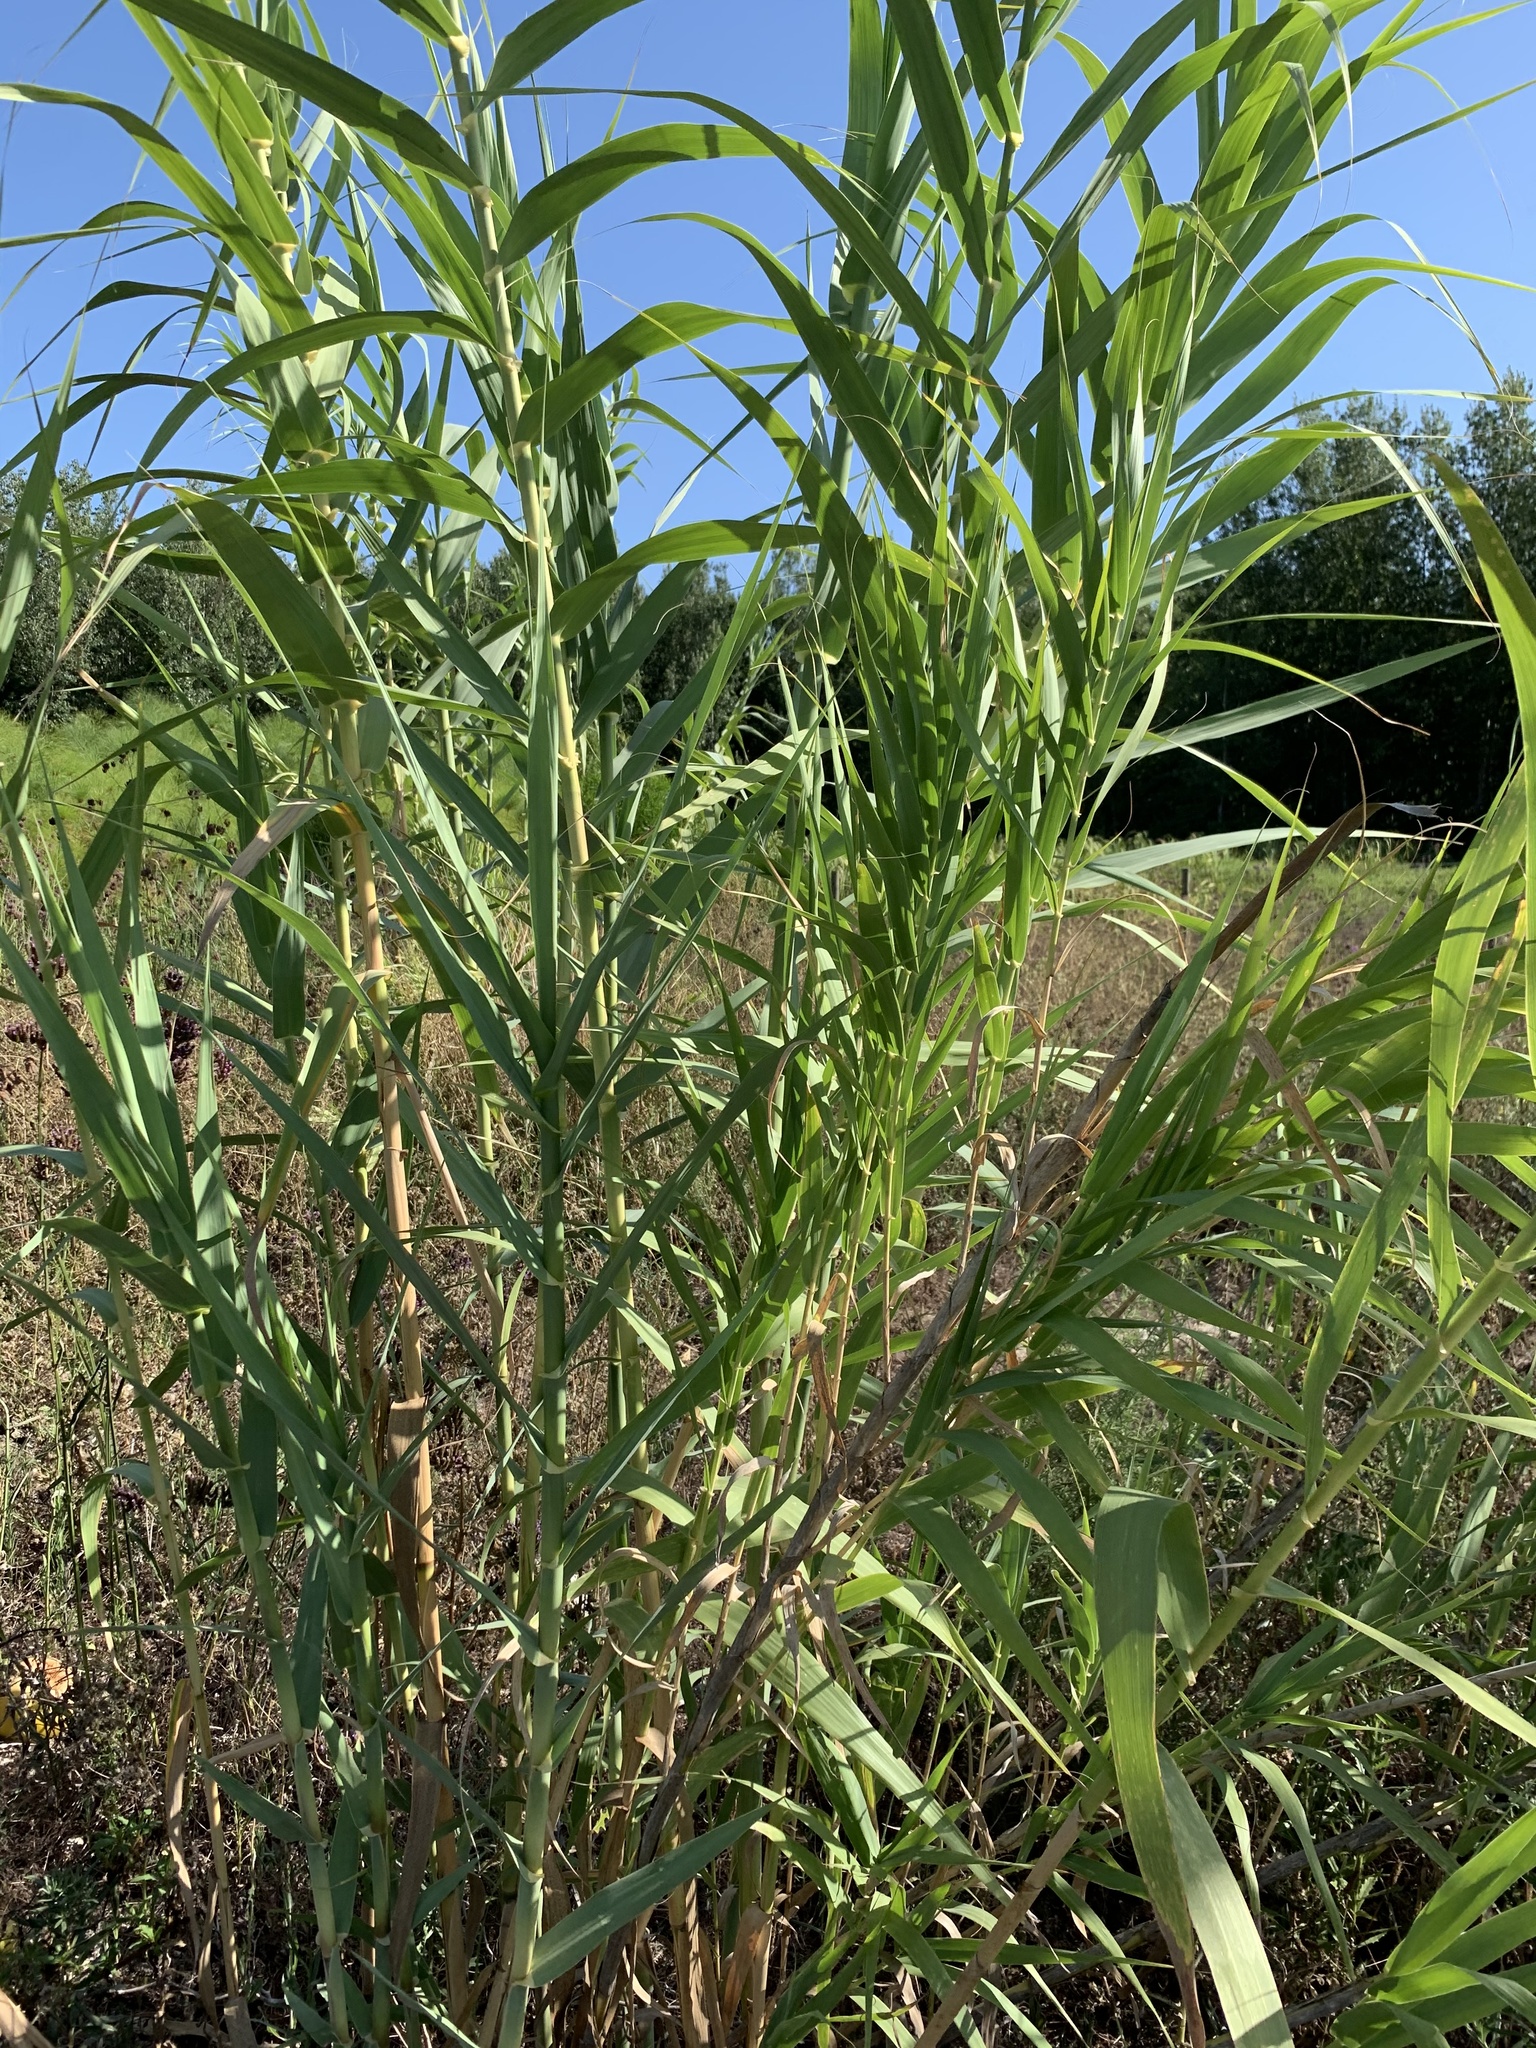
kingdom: Plantae
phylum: Tracheophyta
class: Liliopsida
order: Poales
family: Poaceae
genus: Arundo
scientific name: Arundo donax
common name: Giant reed
